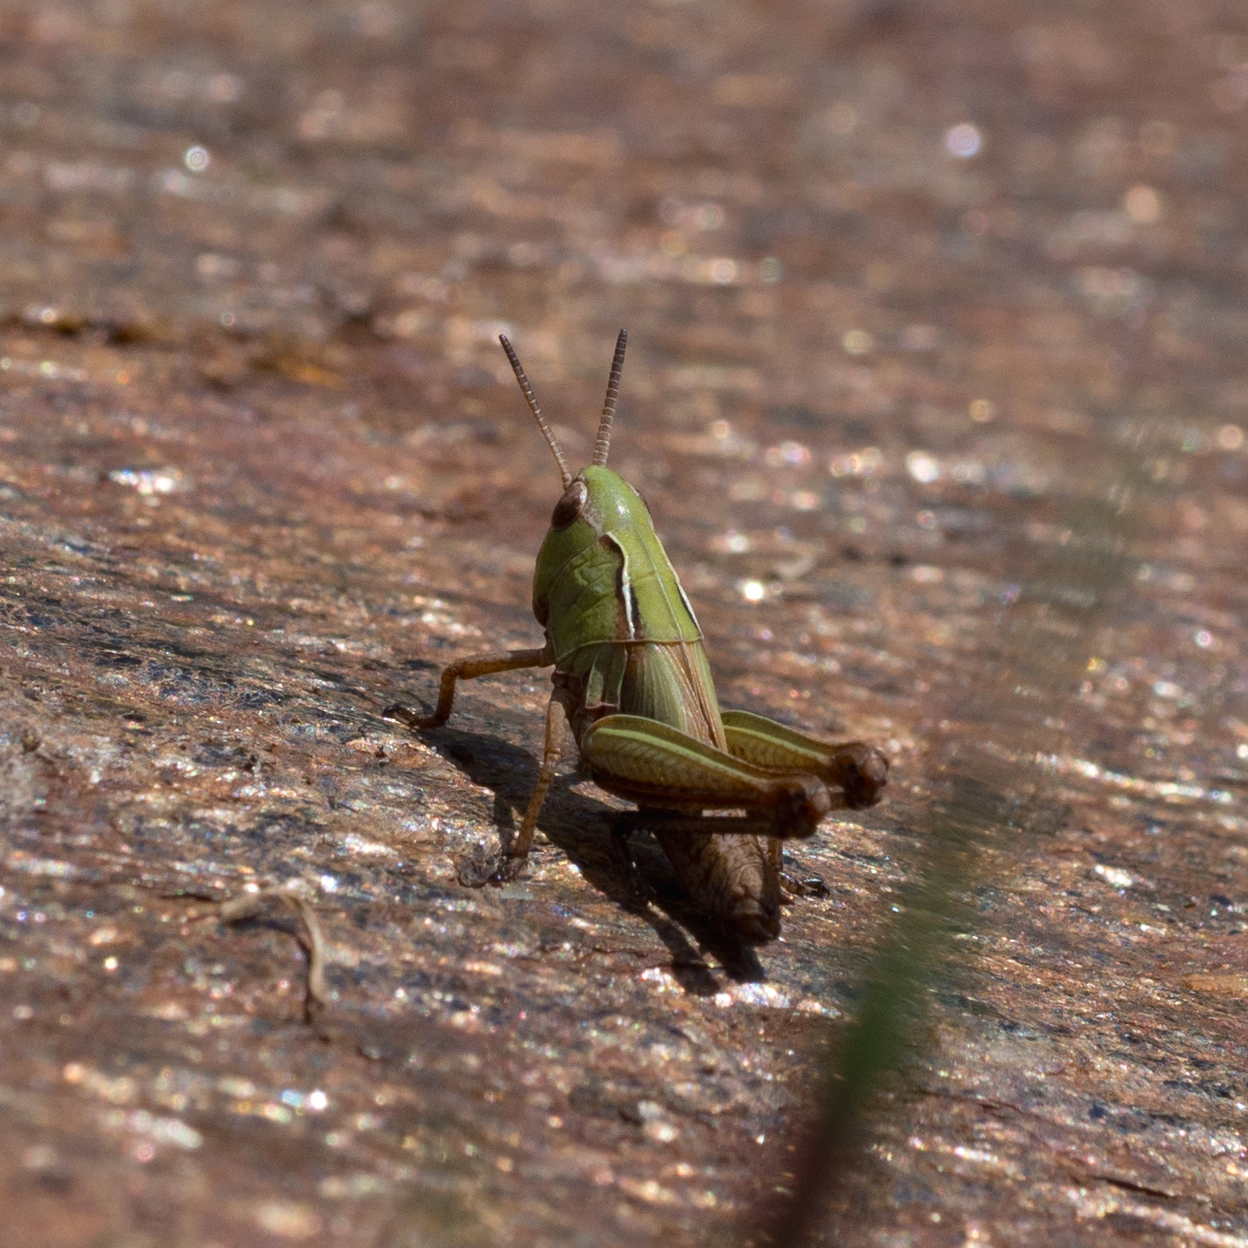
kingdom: Animalia
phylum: Arthropoda
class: Insecta
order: Orthoptera
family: Acrididae
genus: Omocestus
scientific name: Omocestus viridulus
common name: Common green grasshopper
